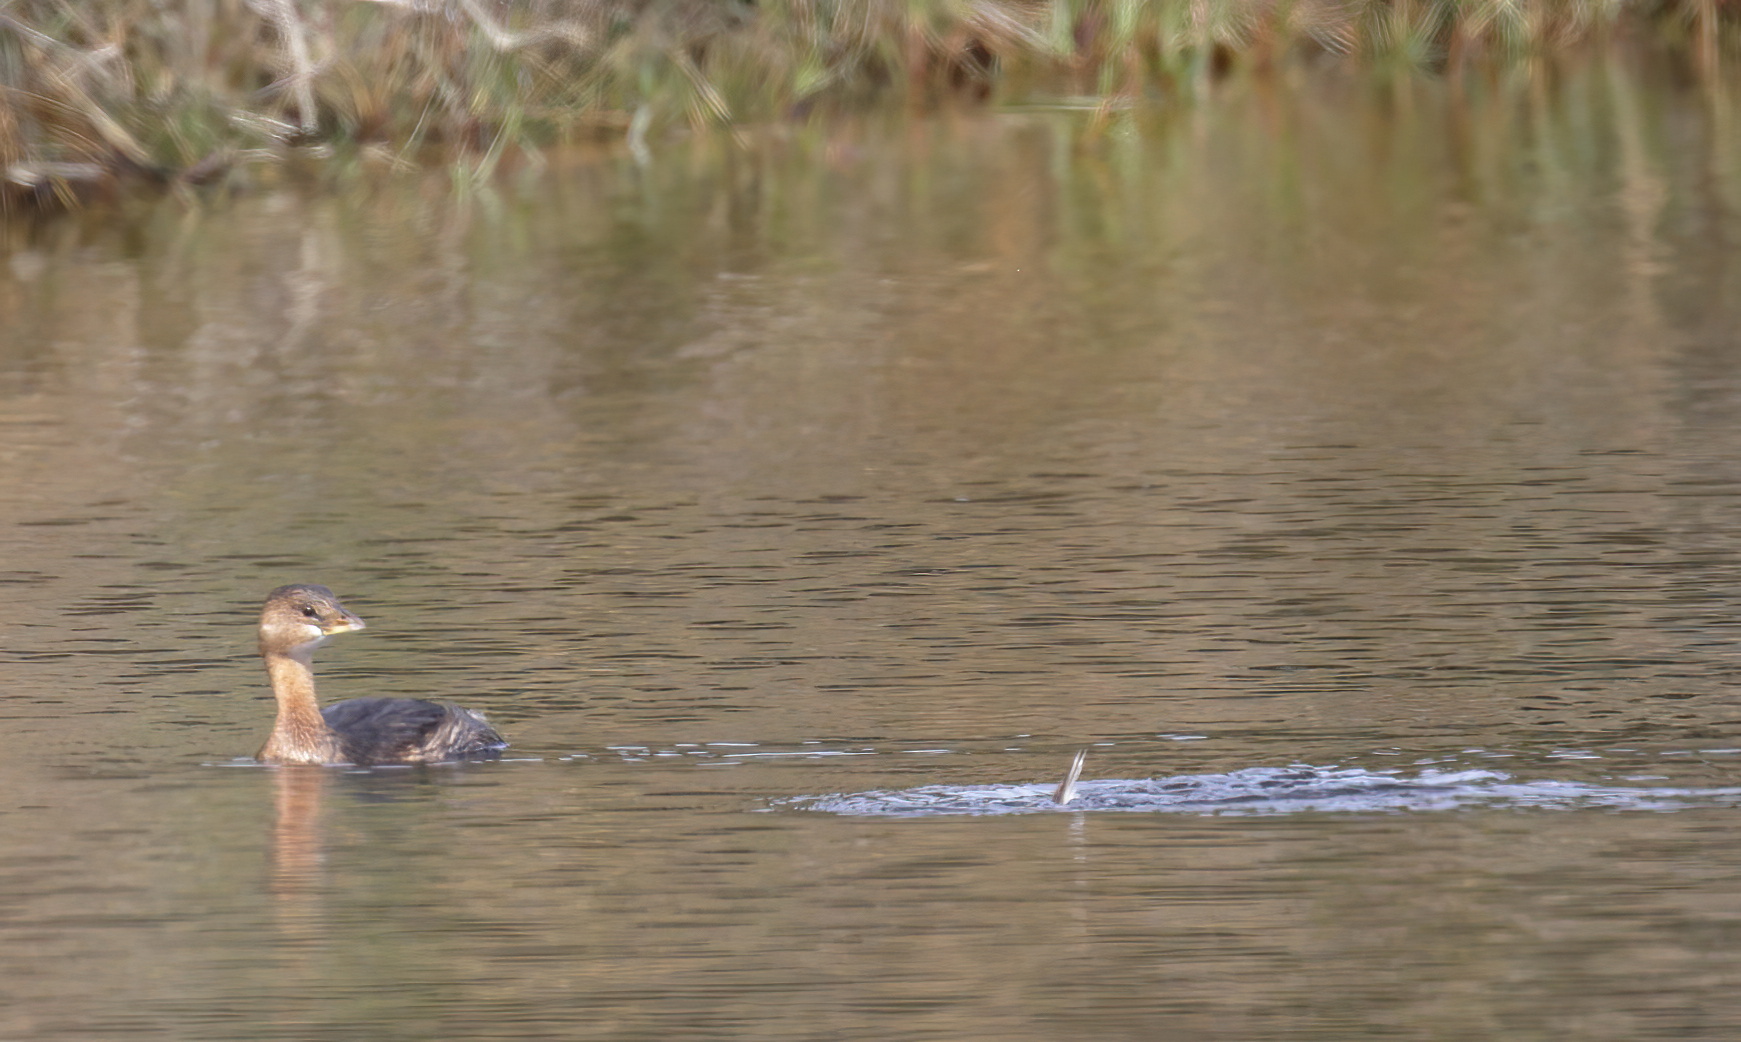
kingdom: Animalia
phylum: Chordata
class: Aves
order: Podicipediformes
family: Podicipedidae
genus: Podilymbus
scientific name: Podilymbus podiceps
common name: Pied-billed grebe
